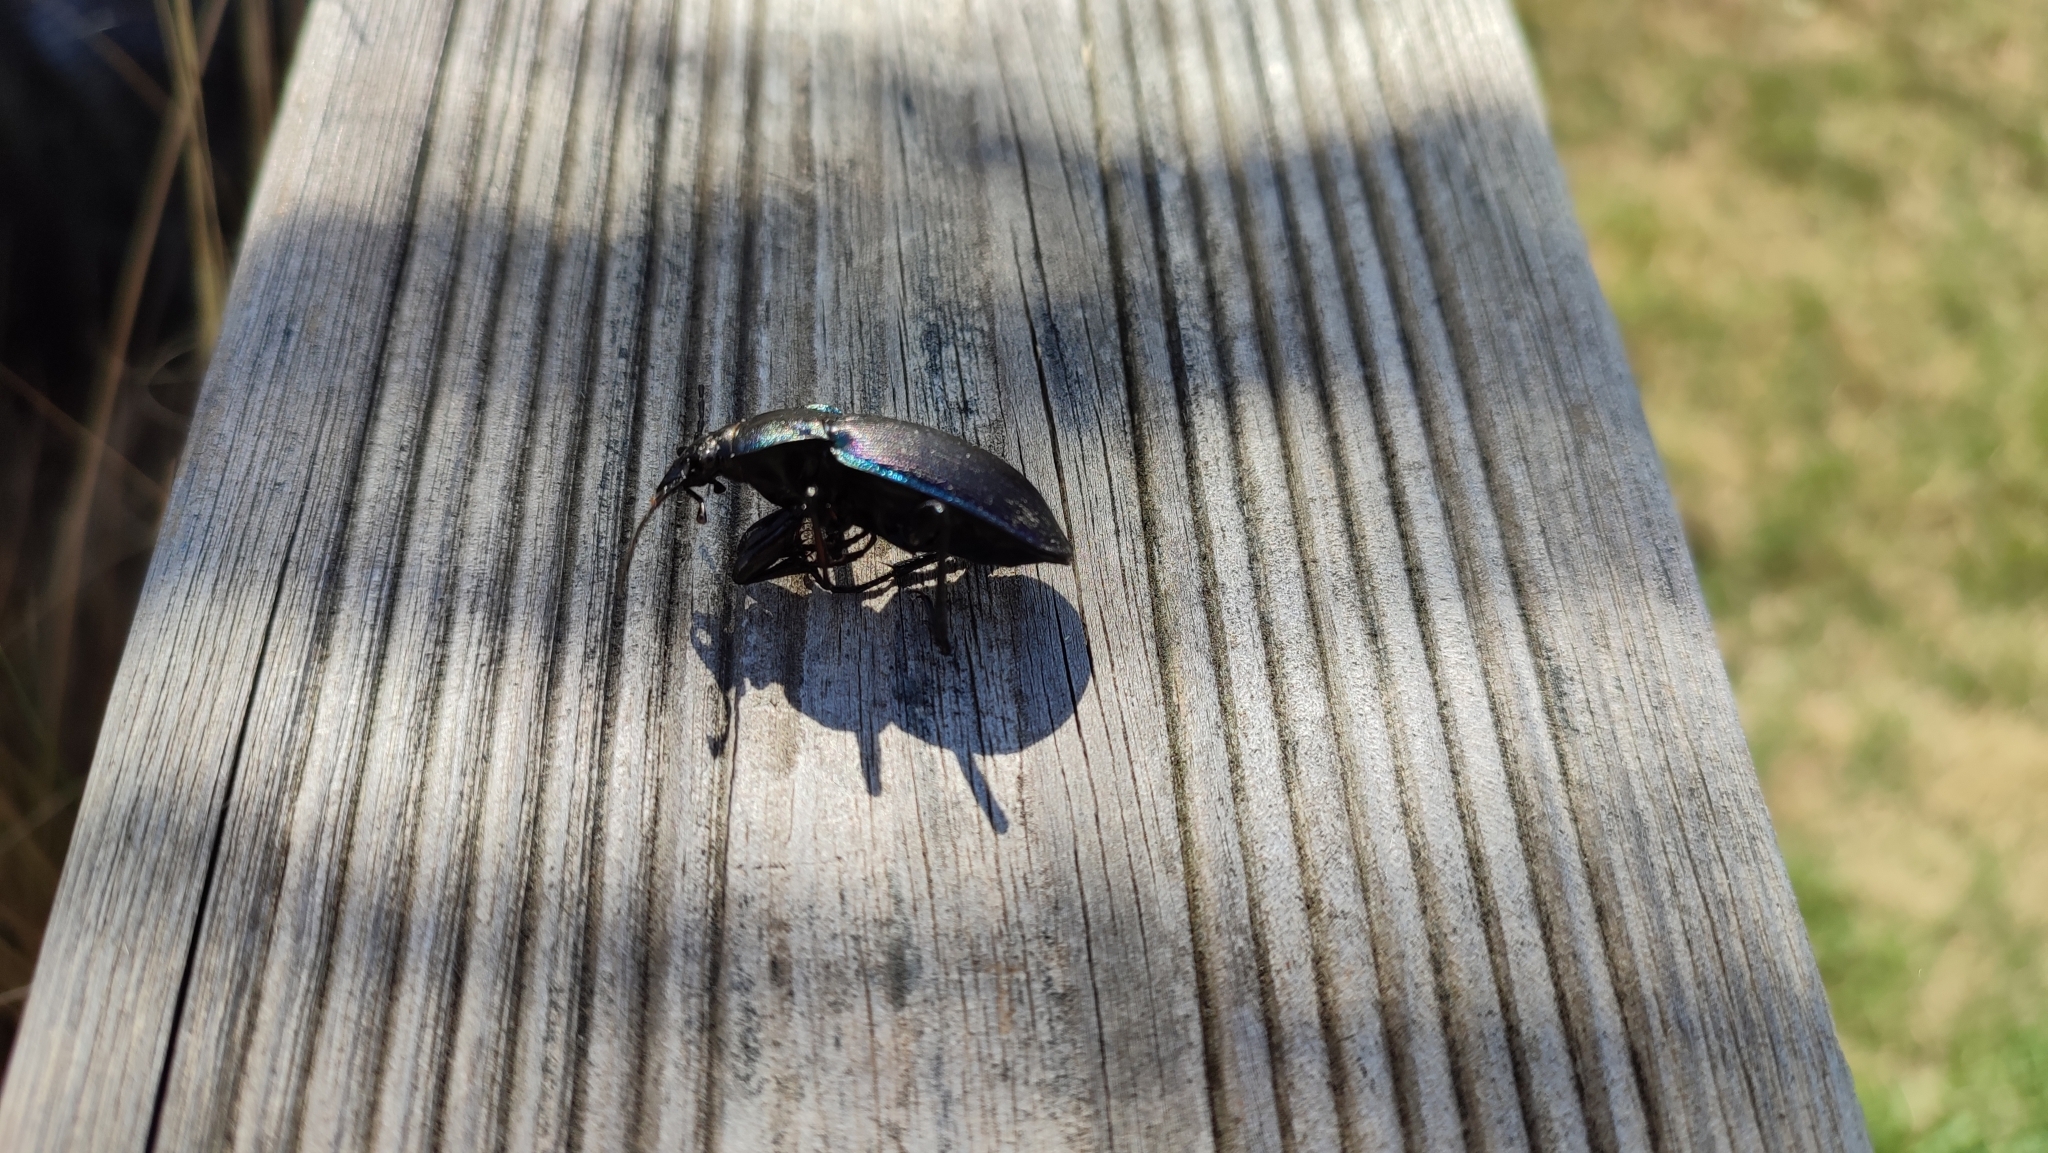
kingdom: Animalia
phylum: Arthropoda
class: Insecta
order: Coleoptera
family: Carabidae
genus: Carabus
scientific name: Carabus purpurascens
